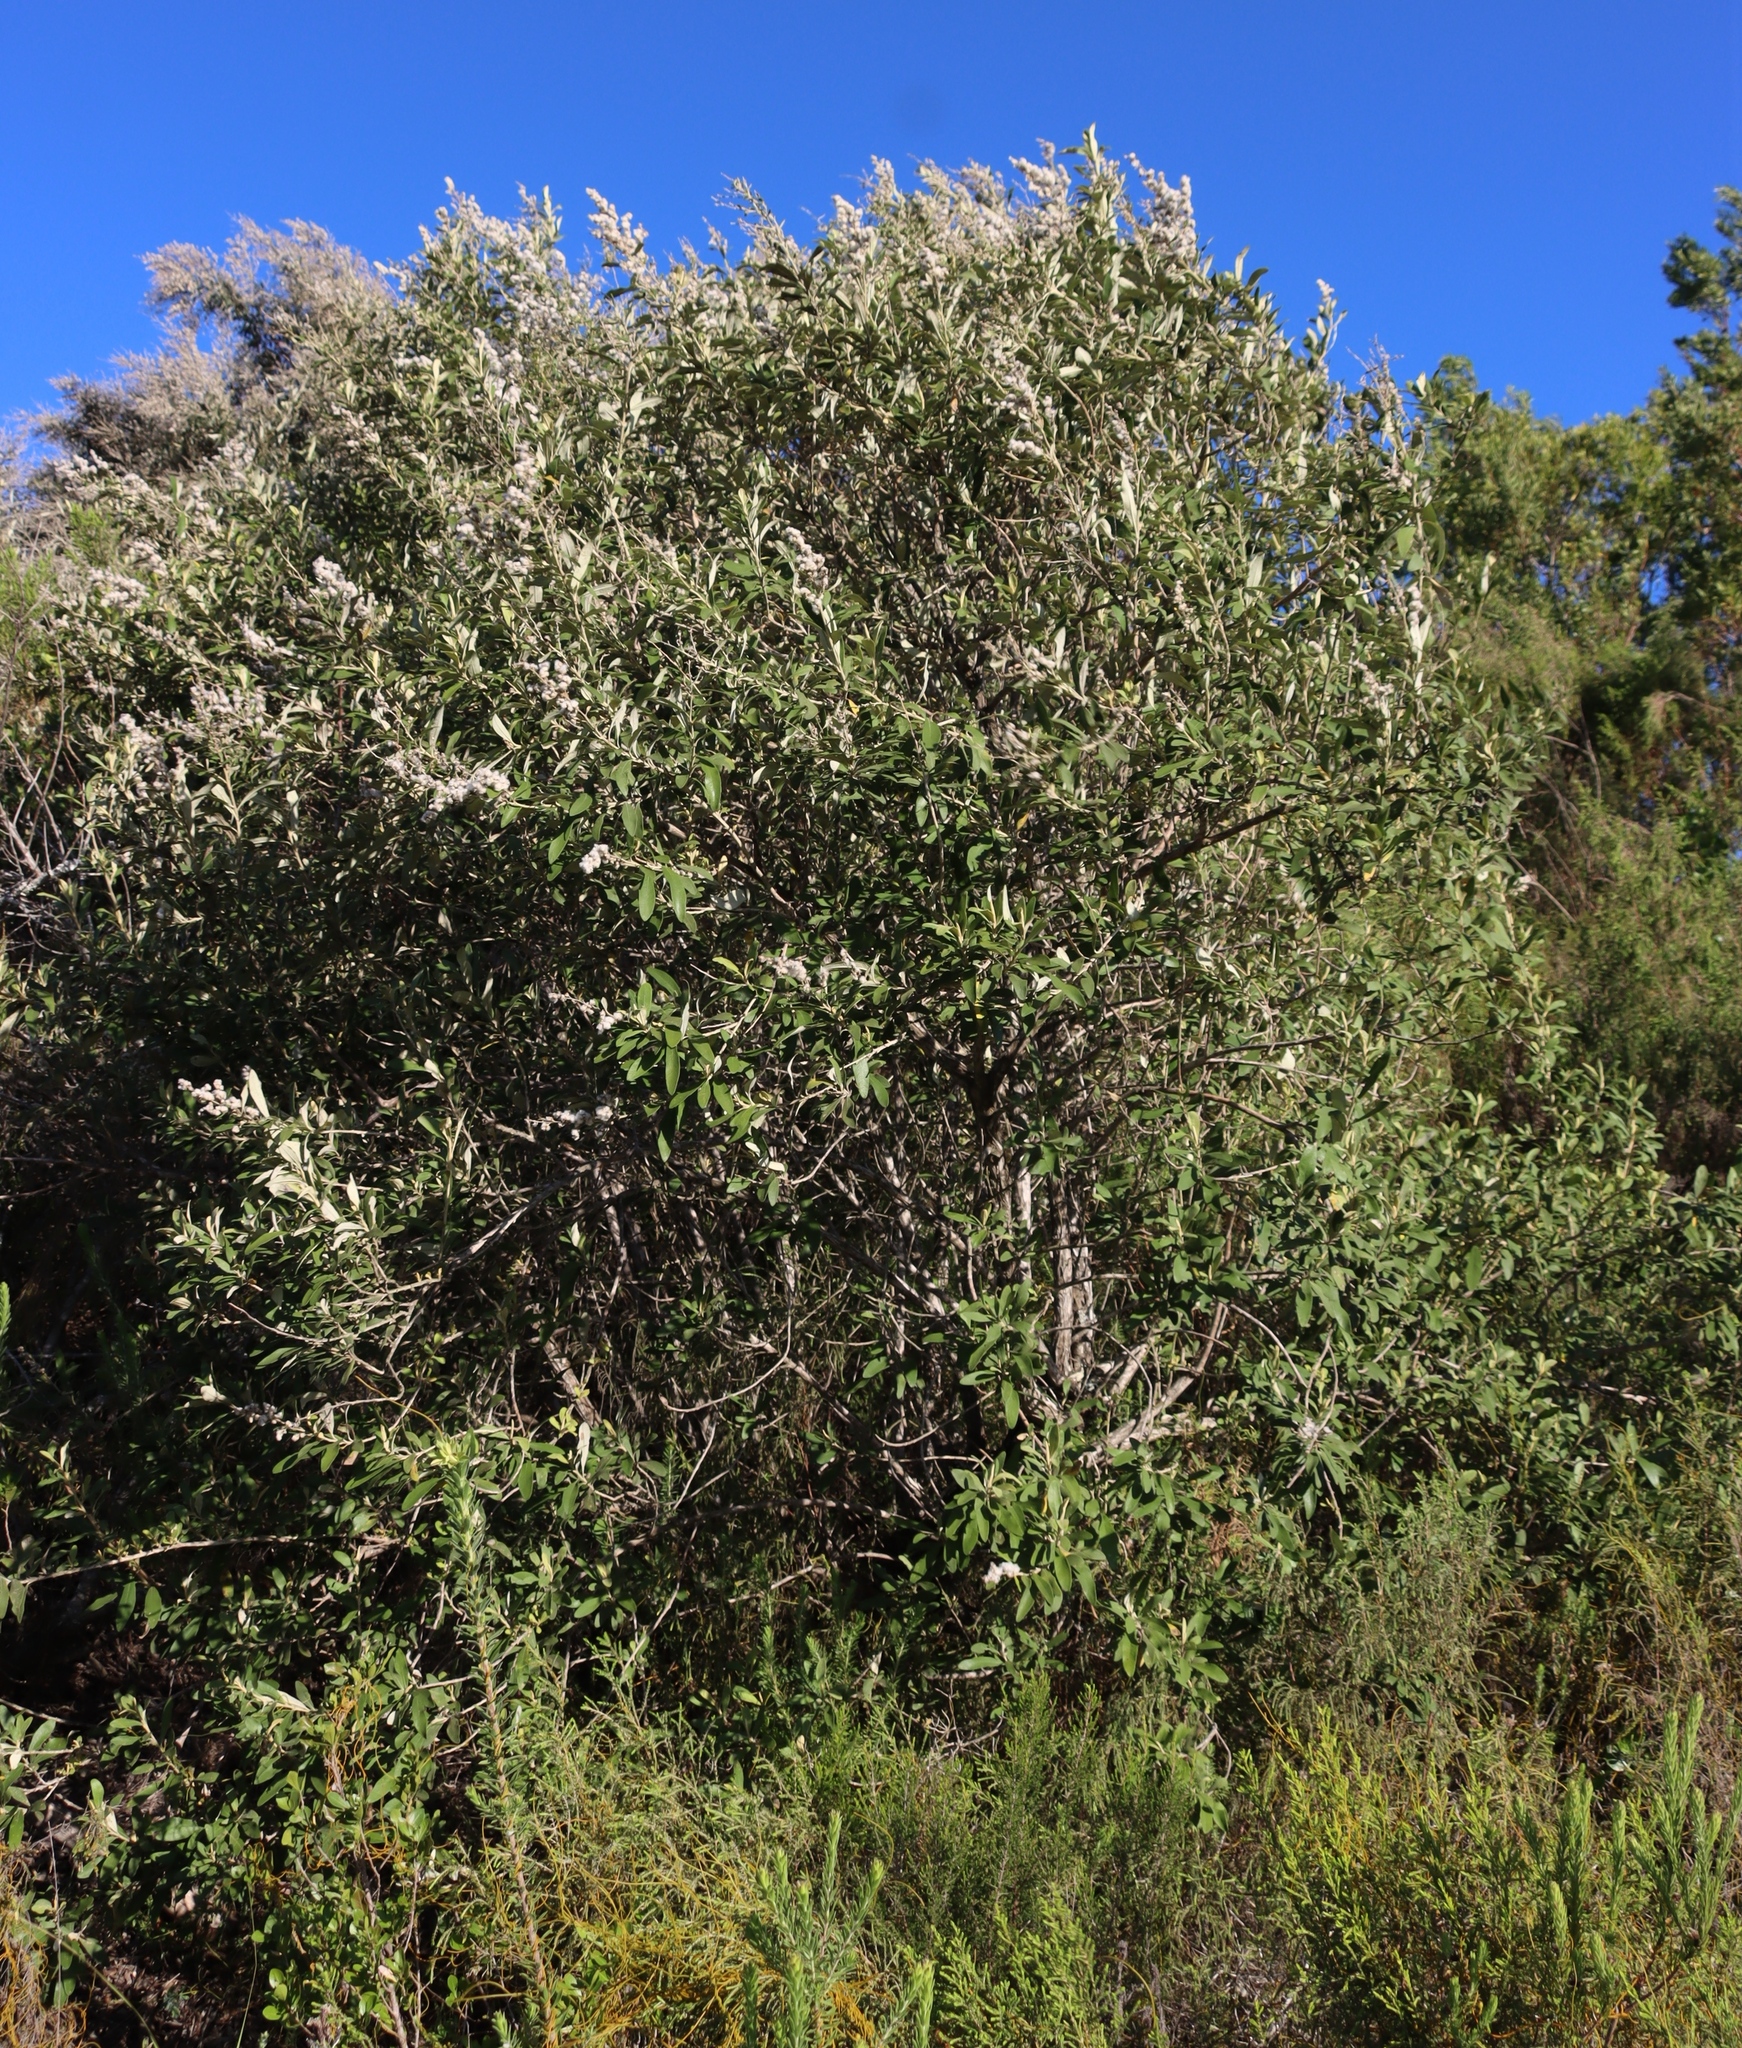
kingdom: Plantae
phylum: Tracheophyta
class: Magnoliopsida
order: Asterales
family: Asteraceae
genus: Tarchonanthus
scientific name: Tarchonanthus littoralis
